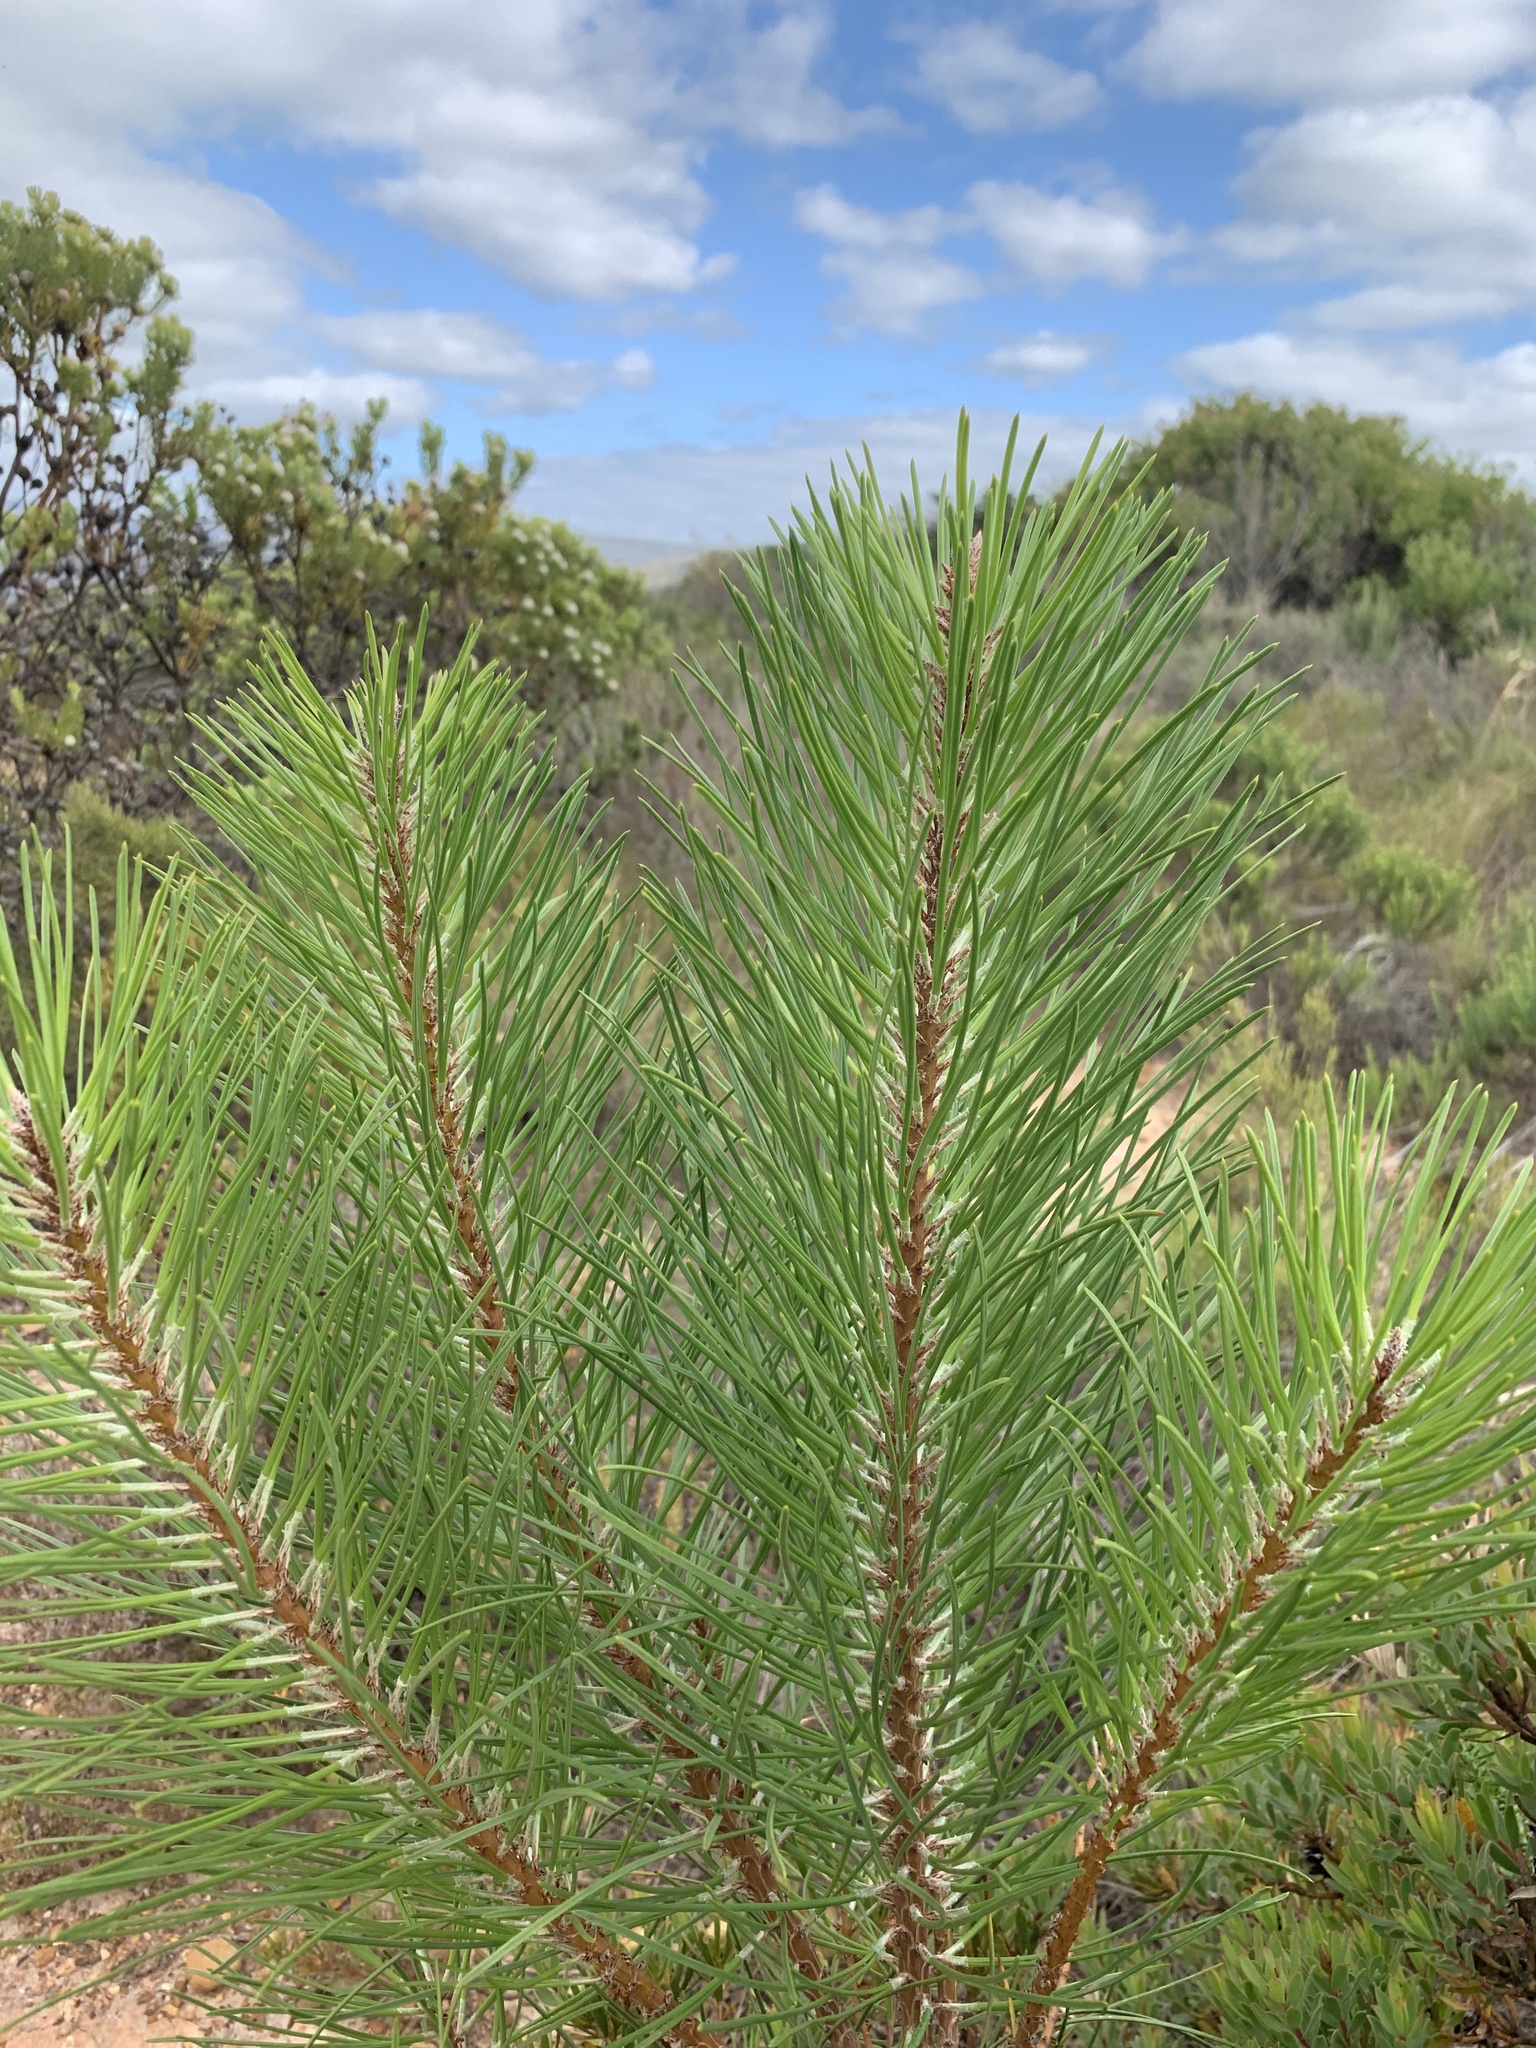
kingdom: Plantae
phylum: Tracheophyta
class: Pinopsida
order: Pinales
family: Pinaceae
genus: Pinus
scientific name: Pinus pinaster
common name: Maritime pine
